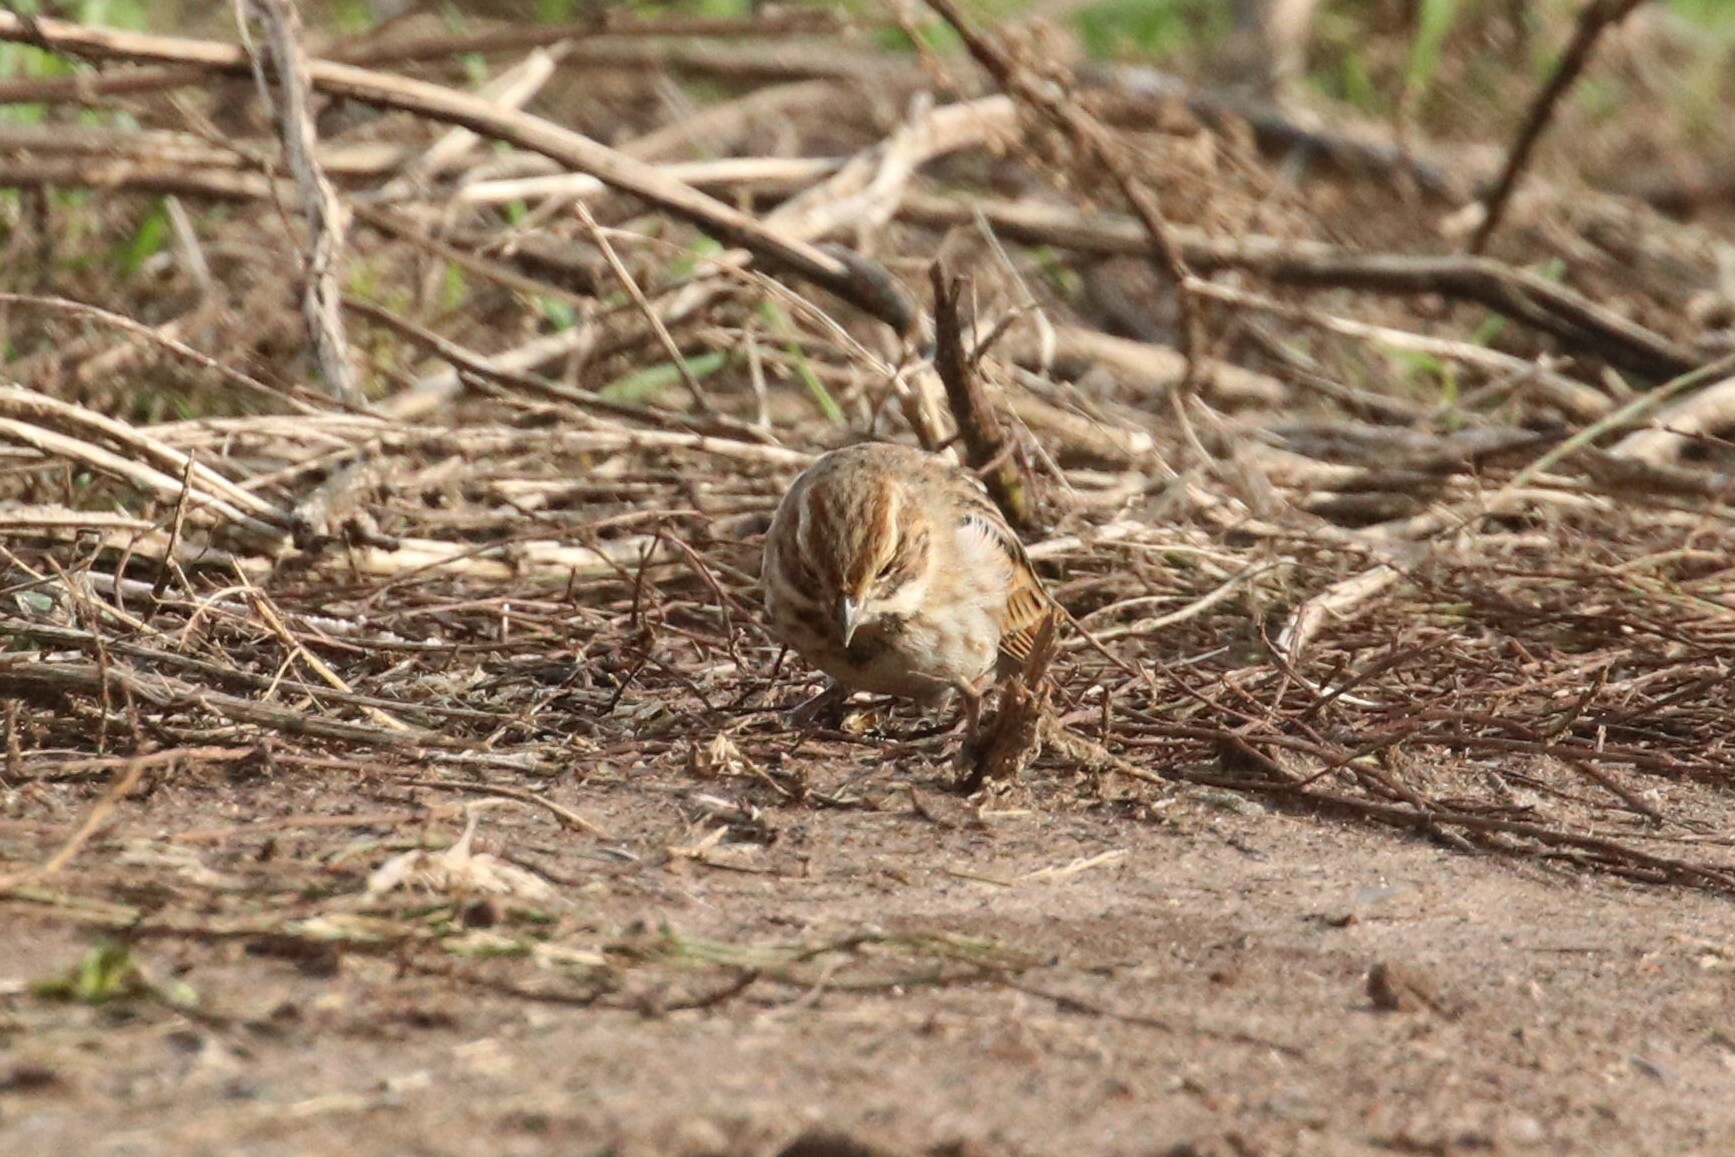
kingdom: Animalia
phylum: Chordata
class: Aves
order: Passeriformes
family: Emberizidae
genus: Emberiza
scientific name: Emberiza schoeniclus
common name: Reed bunting
